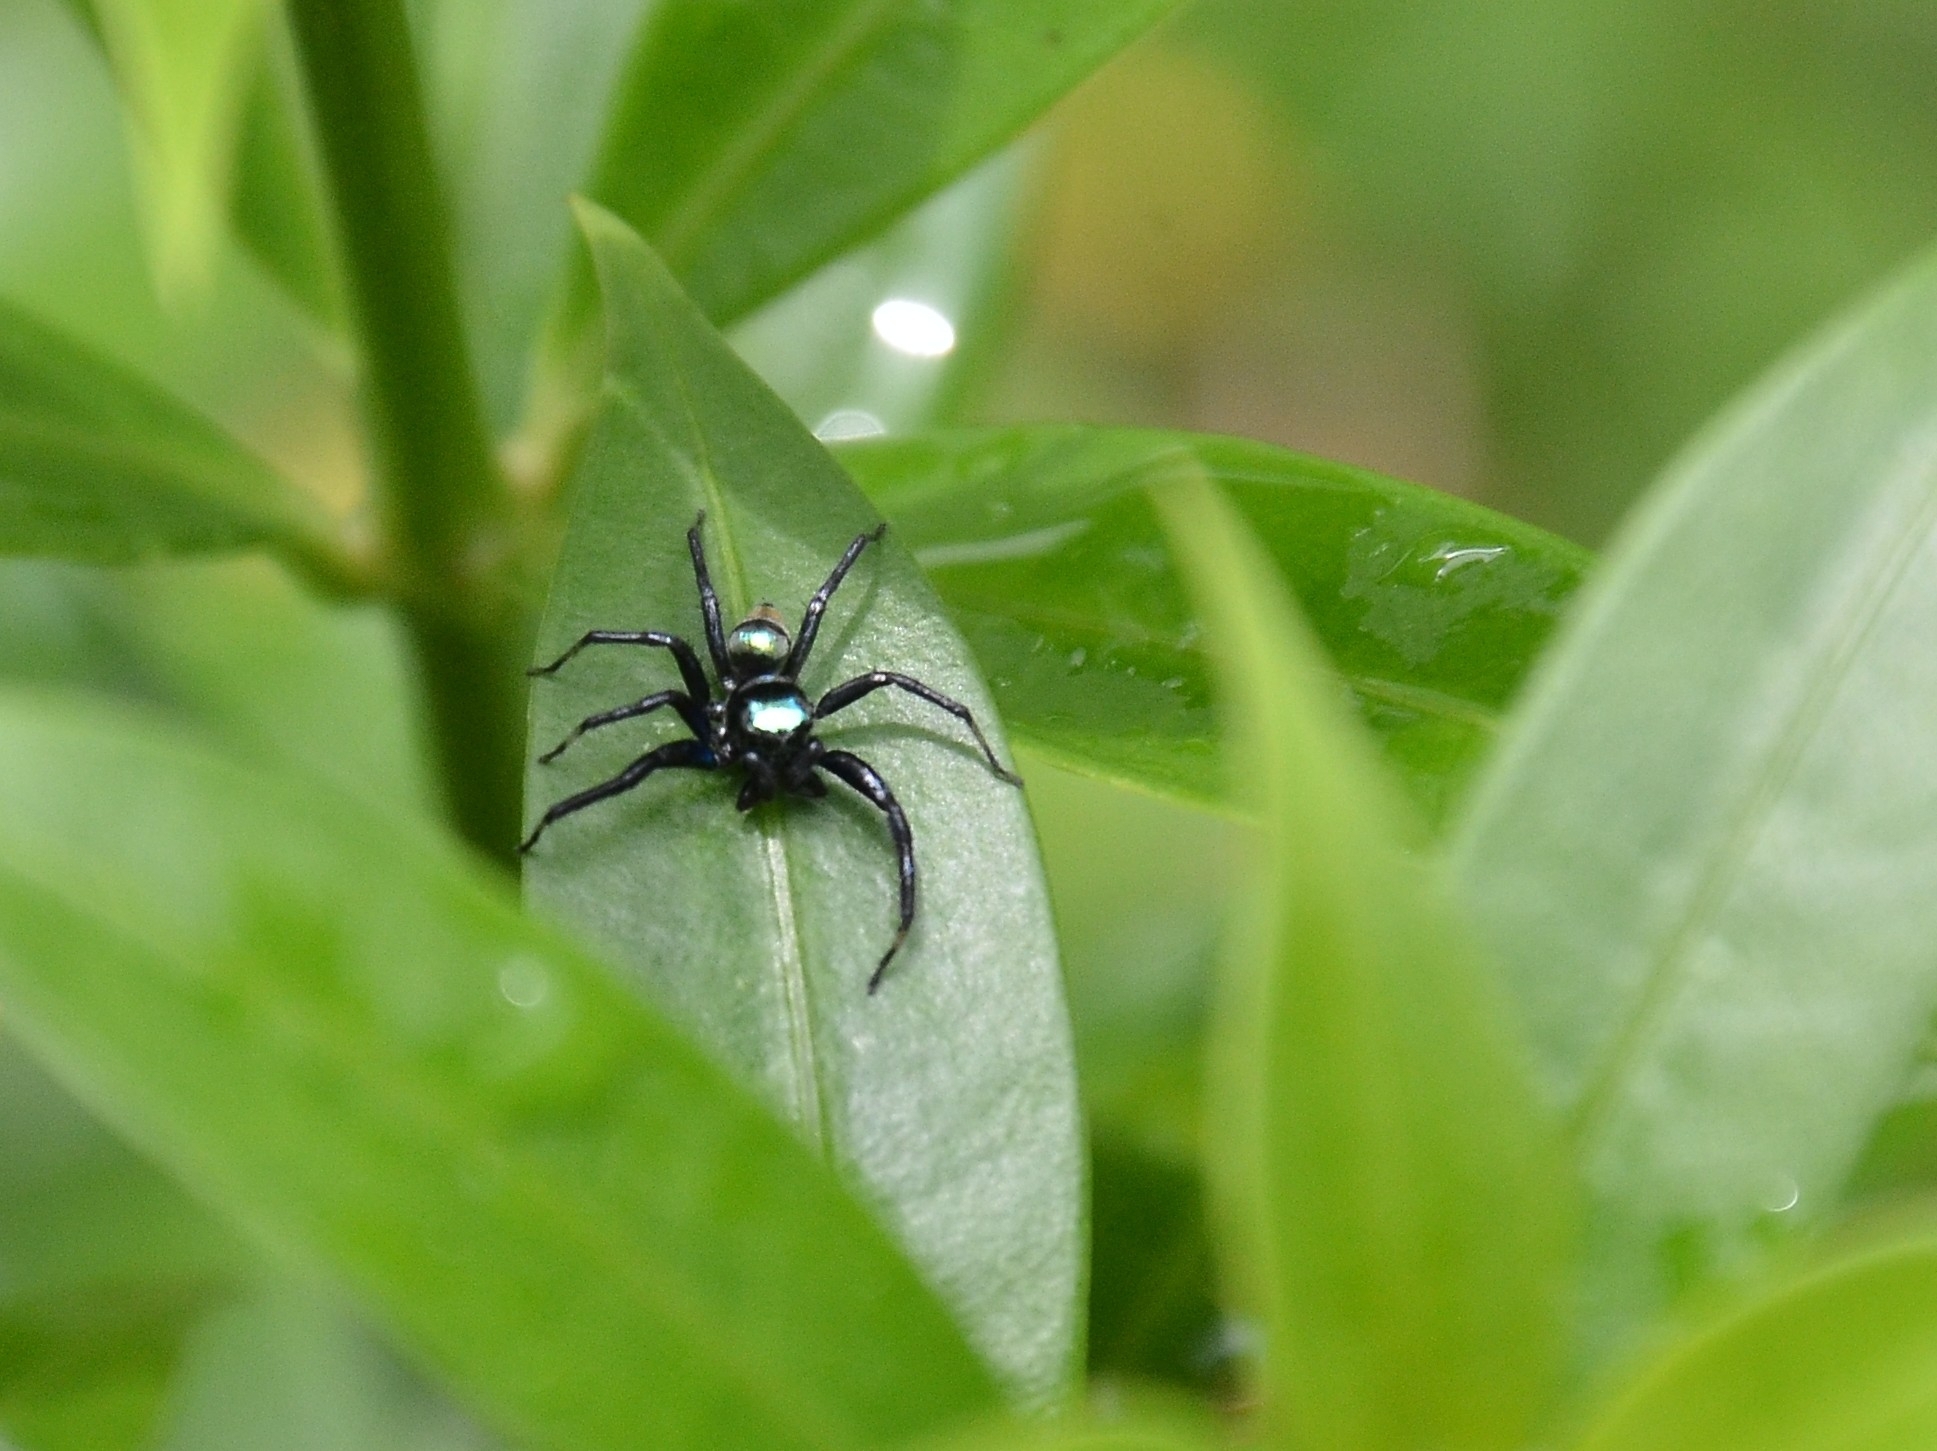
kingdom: Animalia
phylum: Arthropoda
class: Arachnida
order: Araneae
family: Salticidae
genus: Phintella
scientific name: Phintella vittata
